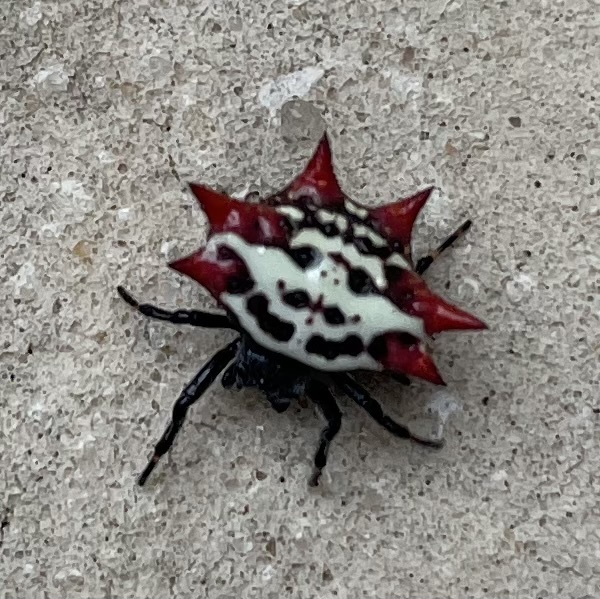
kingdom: Animalia
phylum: Arthropoda
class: Arachnida
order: Araneae
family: Araneidae
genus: Gasteracantha
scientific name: Gasteracantha cancriformis
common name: Orb weavers
